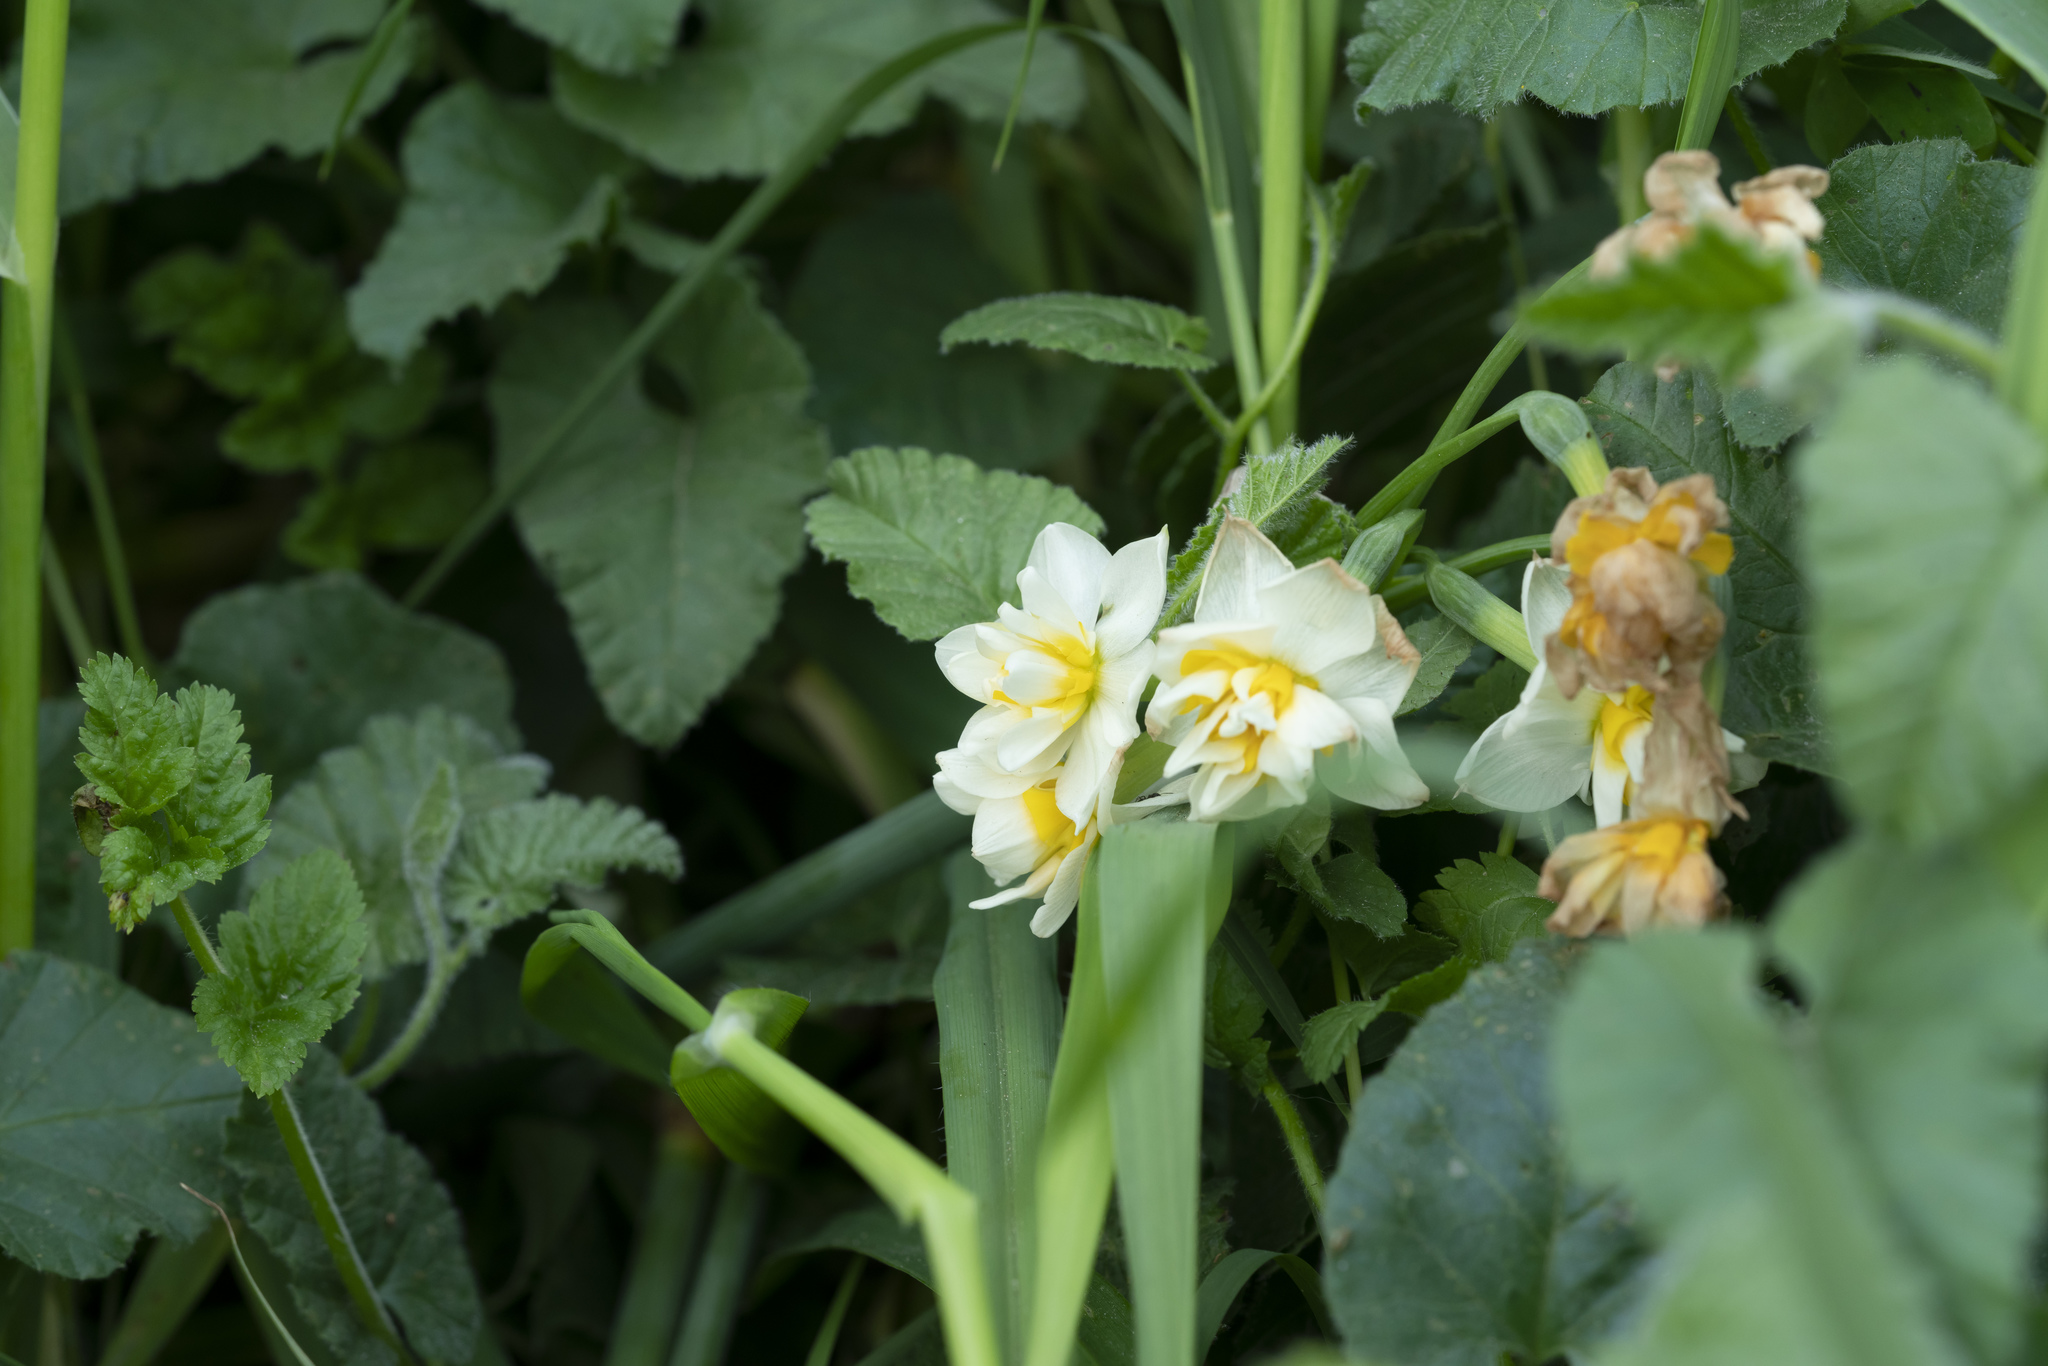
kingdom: Plantae
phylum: Tracheophyta
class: Liliopsida
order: Asparagales
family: Amaryllidaceae
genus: Narcissus
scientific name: Narcissus tazetta
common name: Bunch-flowered daffodil
